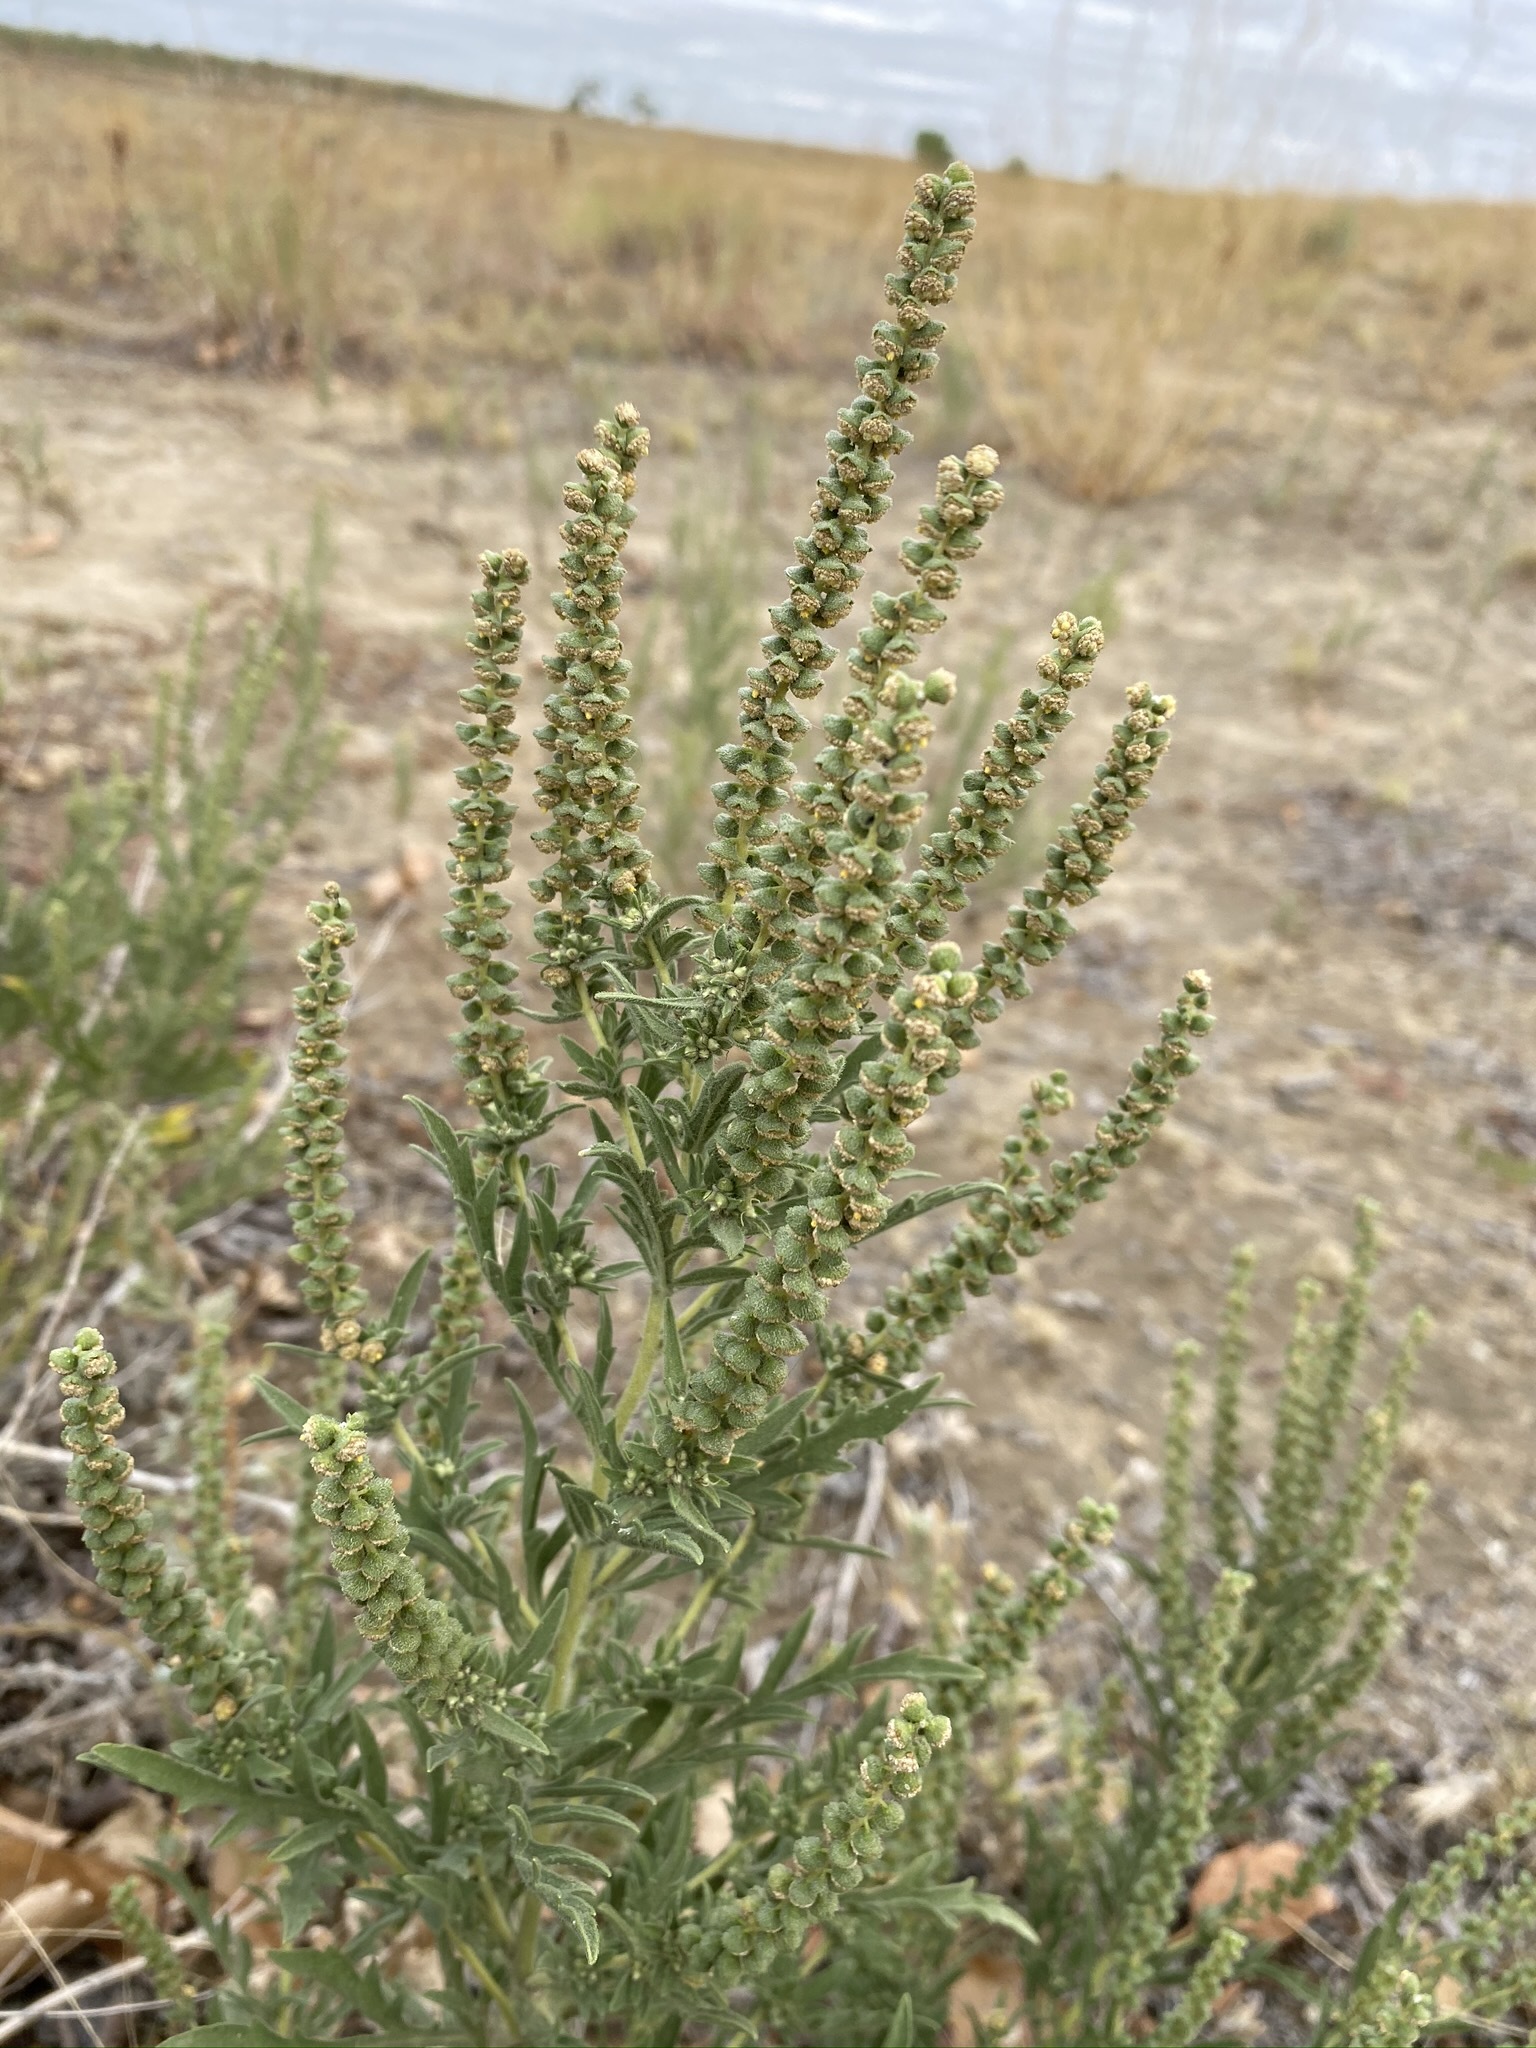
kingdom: Plantae
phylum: Tracheophyta
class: Magnoliopsida
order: Asterales
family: Asteraceae
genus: Ambrosia
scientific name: Ambrosia psilostachya
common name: Perennial ragweed
